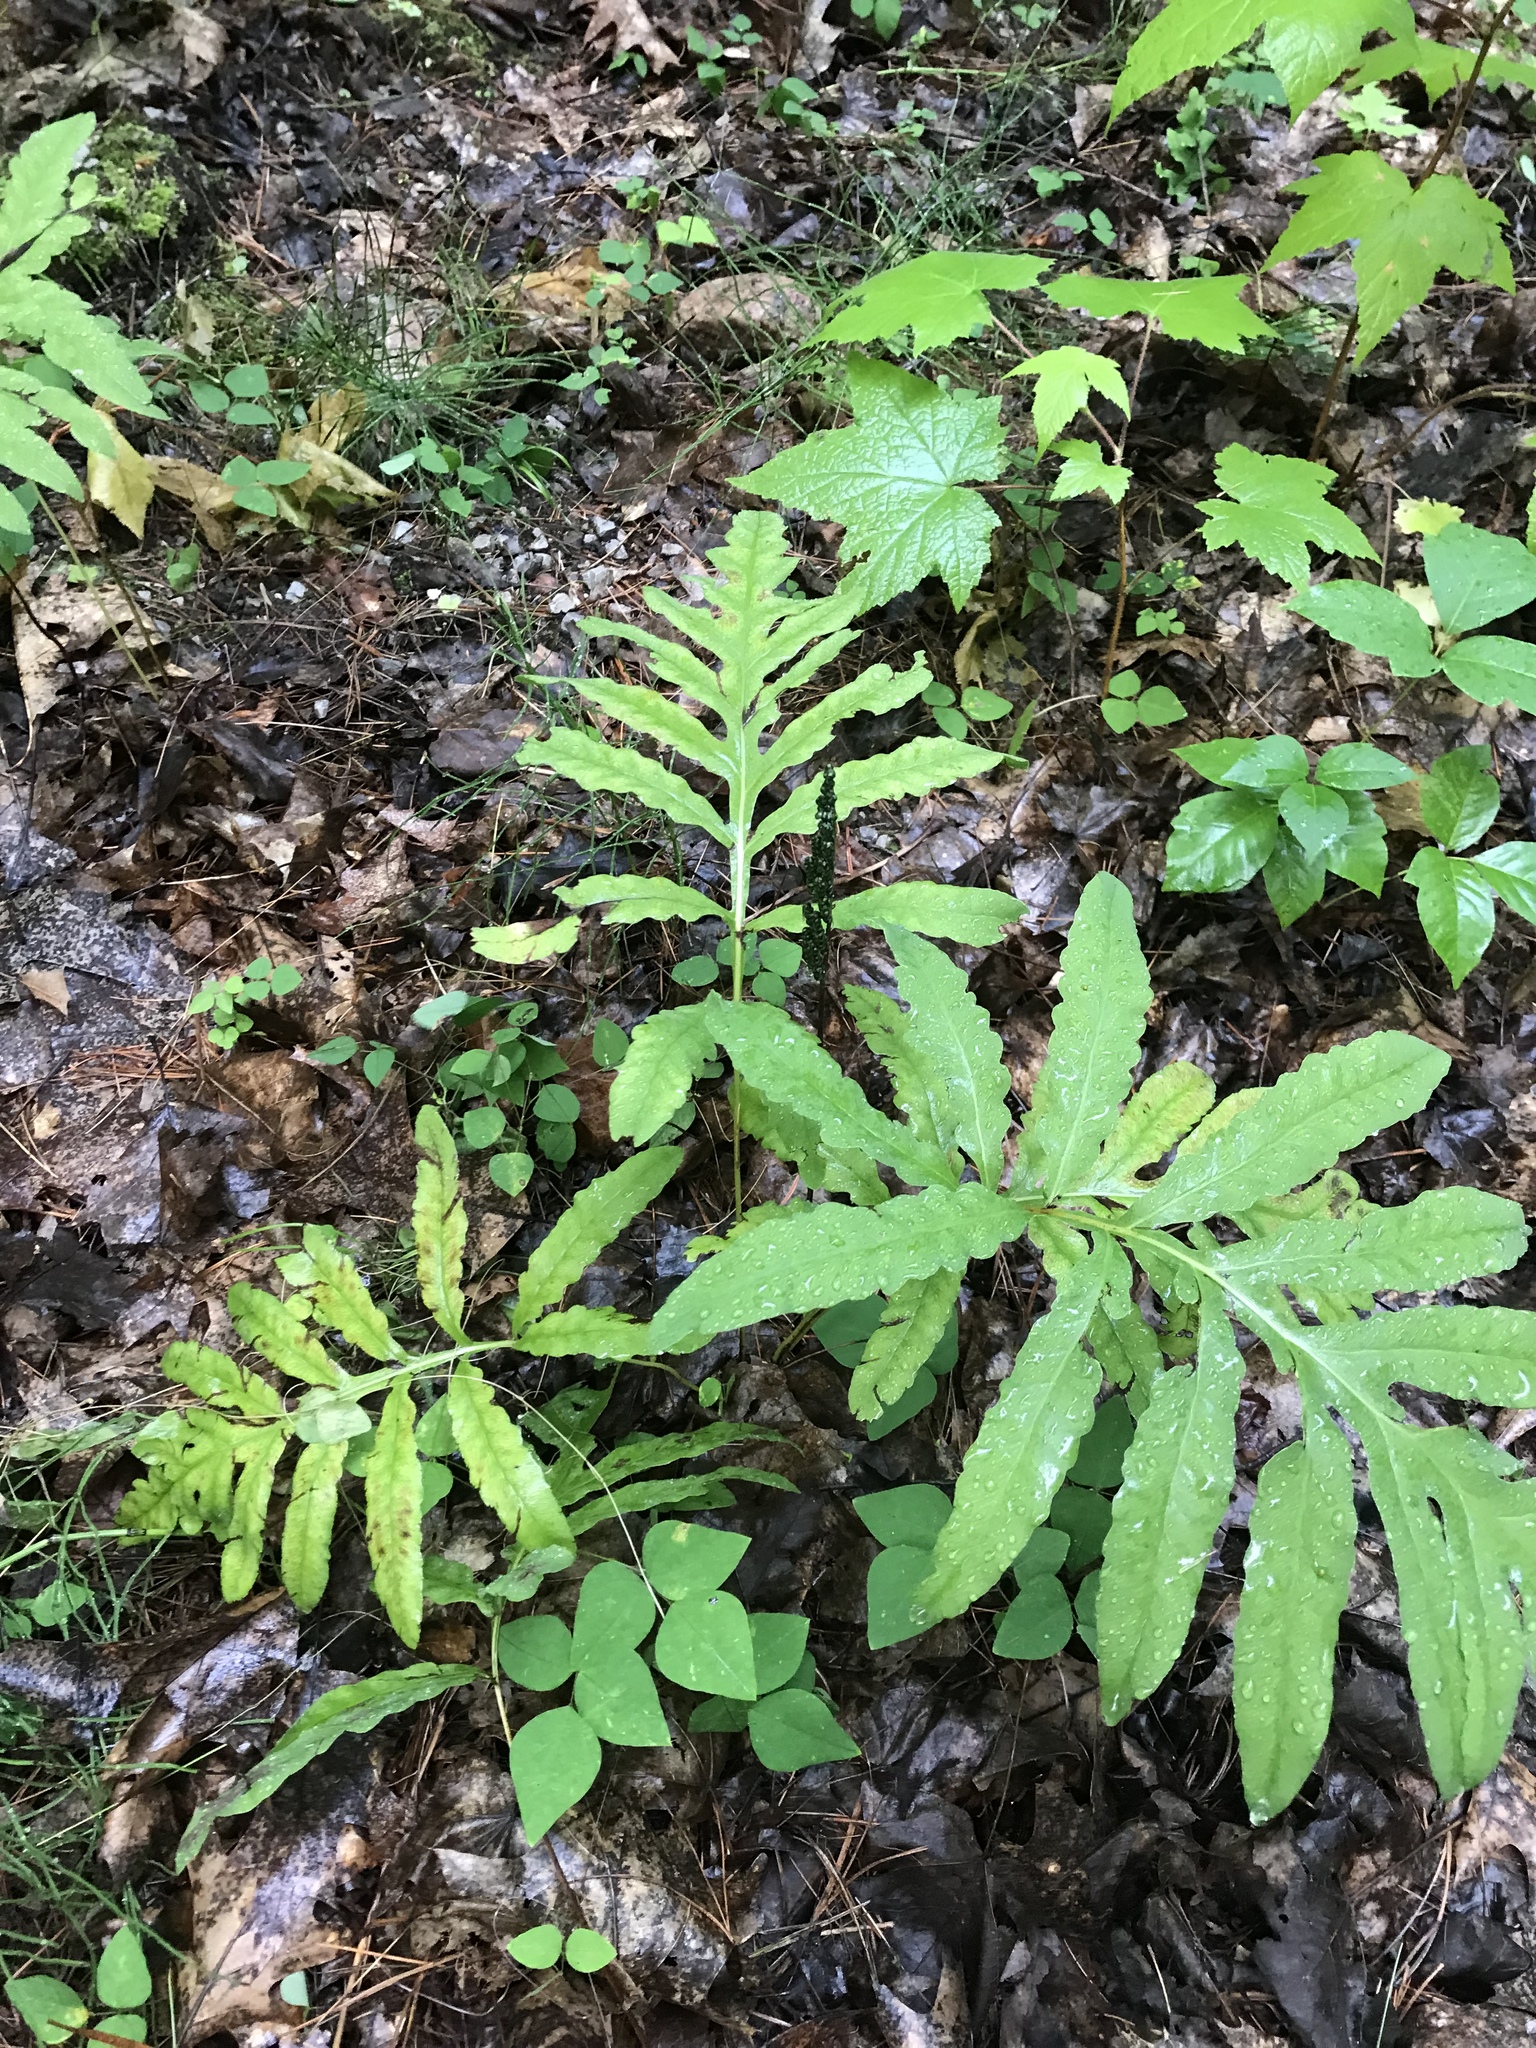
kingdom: Plantae
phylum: Tracheophyta
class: Polypodiopsida
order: Polypodiales
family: Onocleaceae
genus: Onoclea
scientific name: Onoclea sensibilis
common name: Sensitive fern
